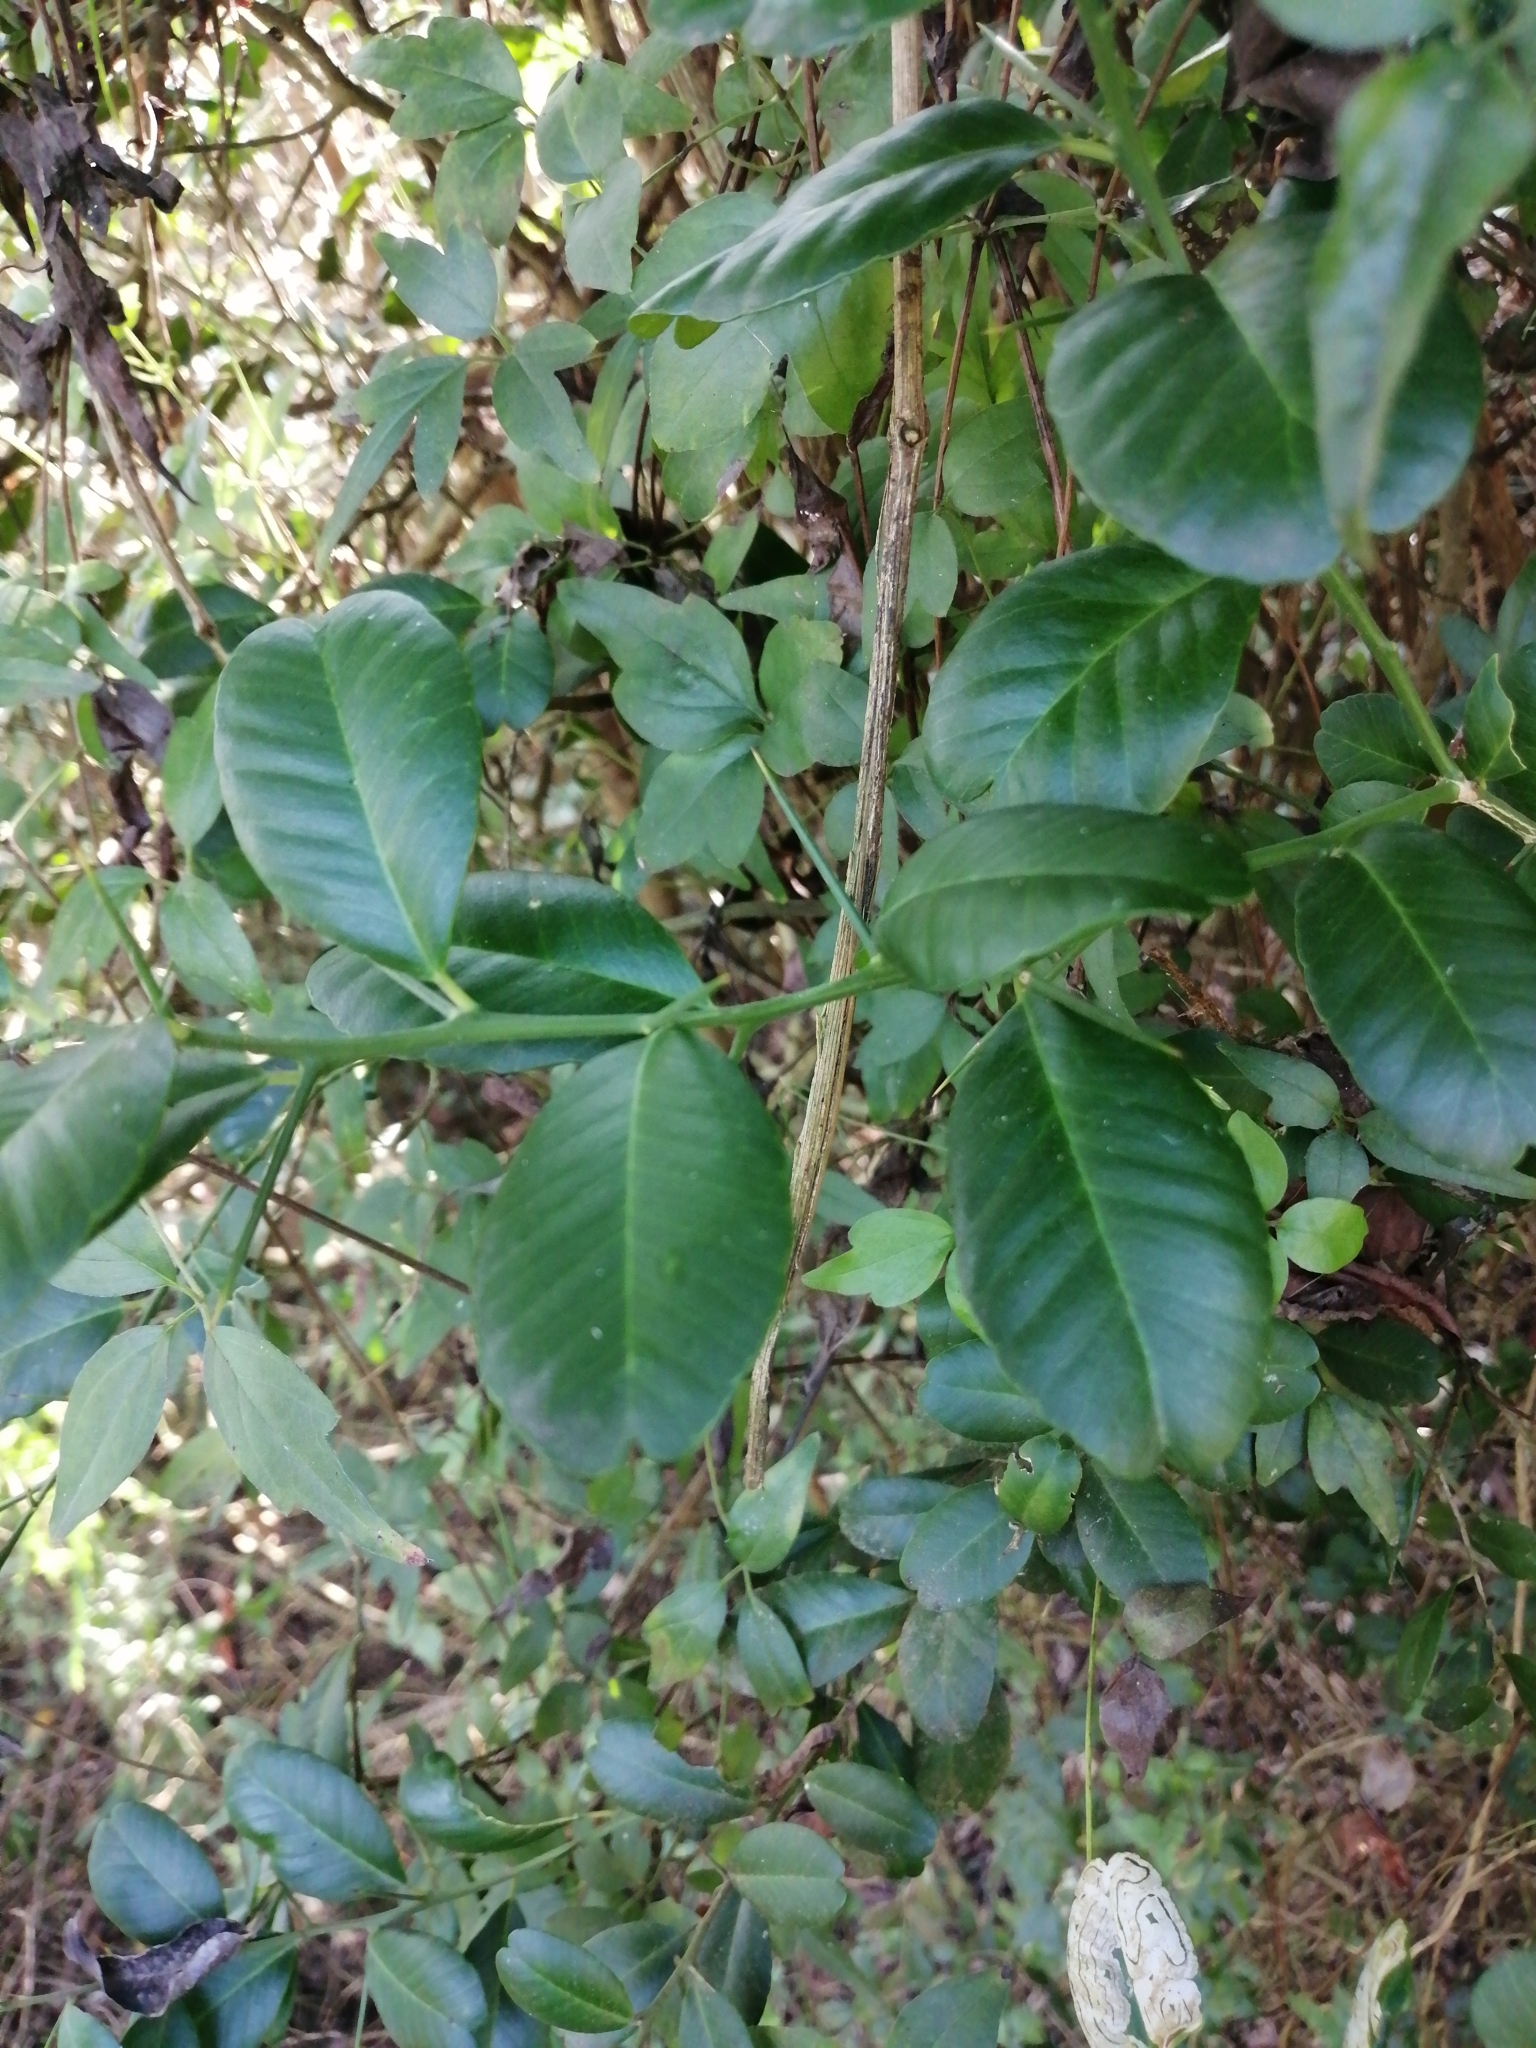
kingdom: Plantae
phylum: Tracheophyta
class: Magnoliopsida
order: Sapindales
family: Rutaceae
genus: Atalantia
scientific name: Atalantia buxifolia
